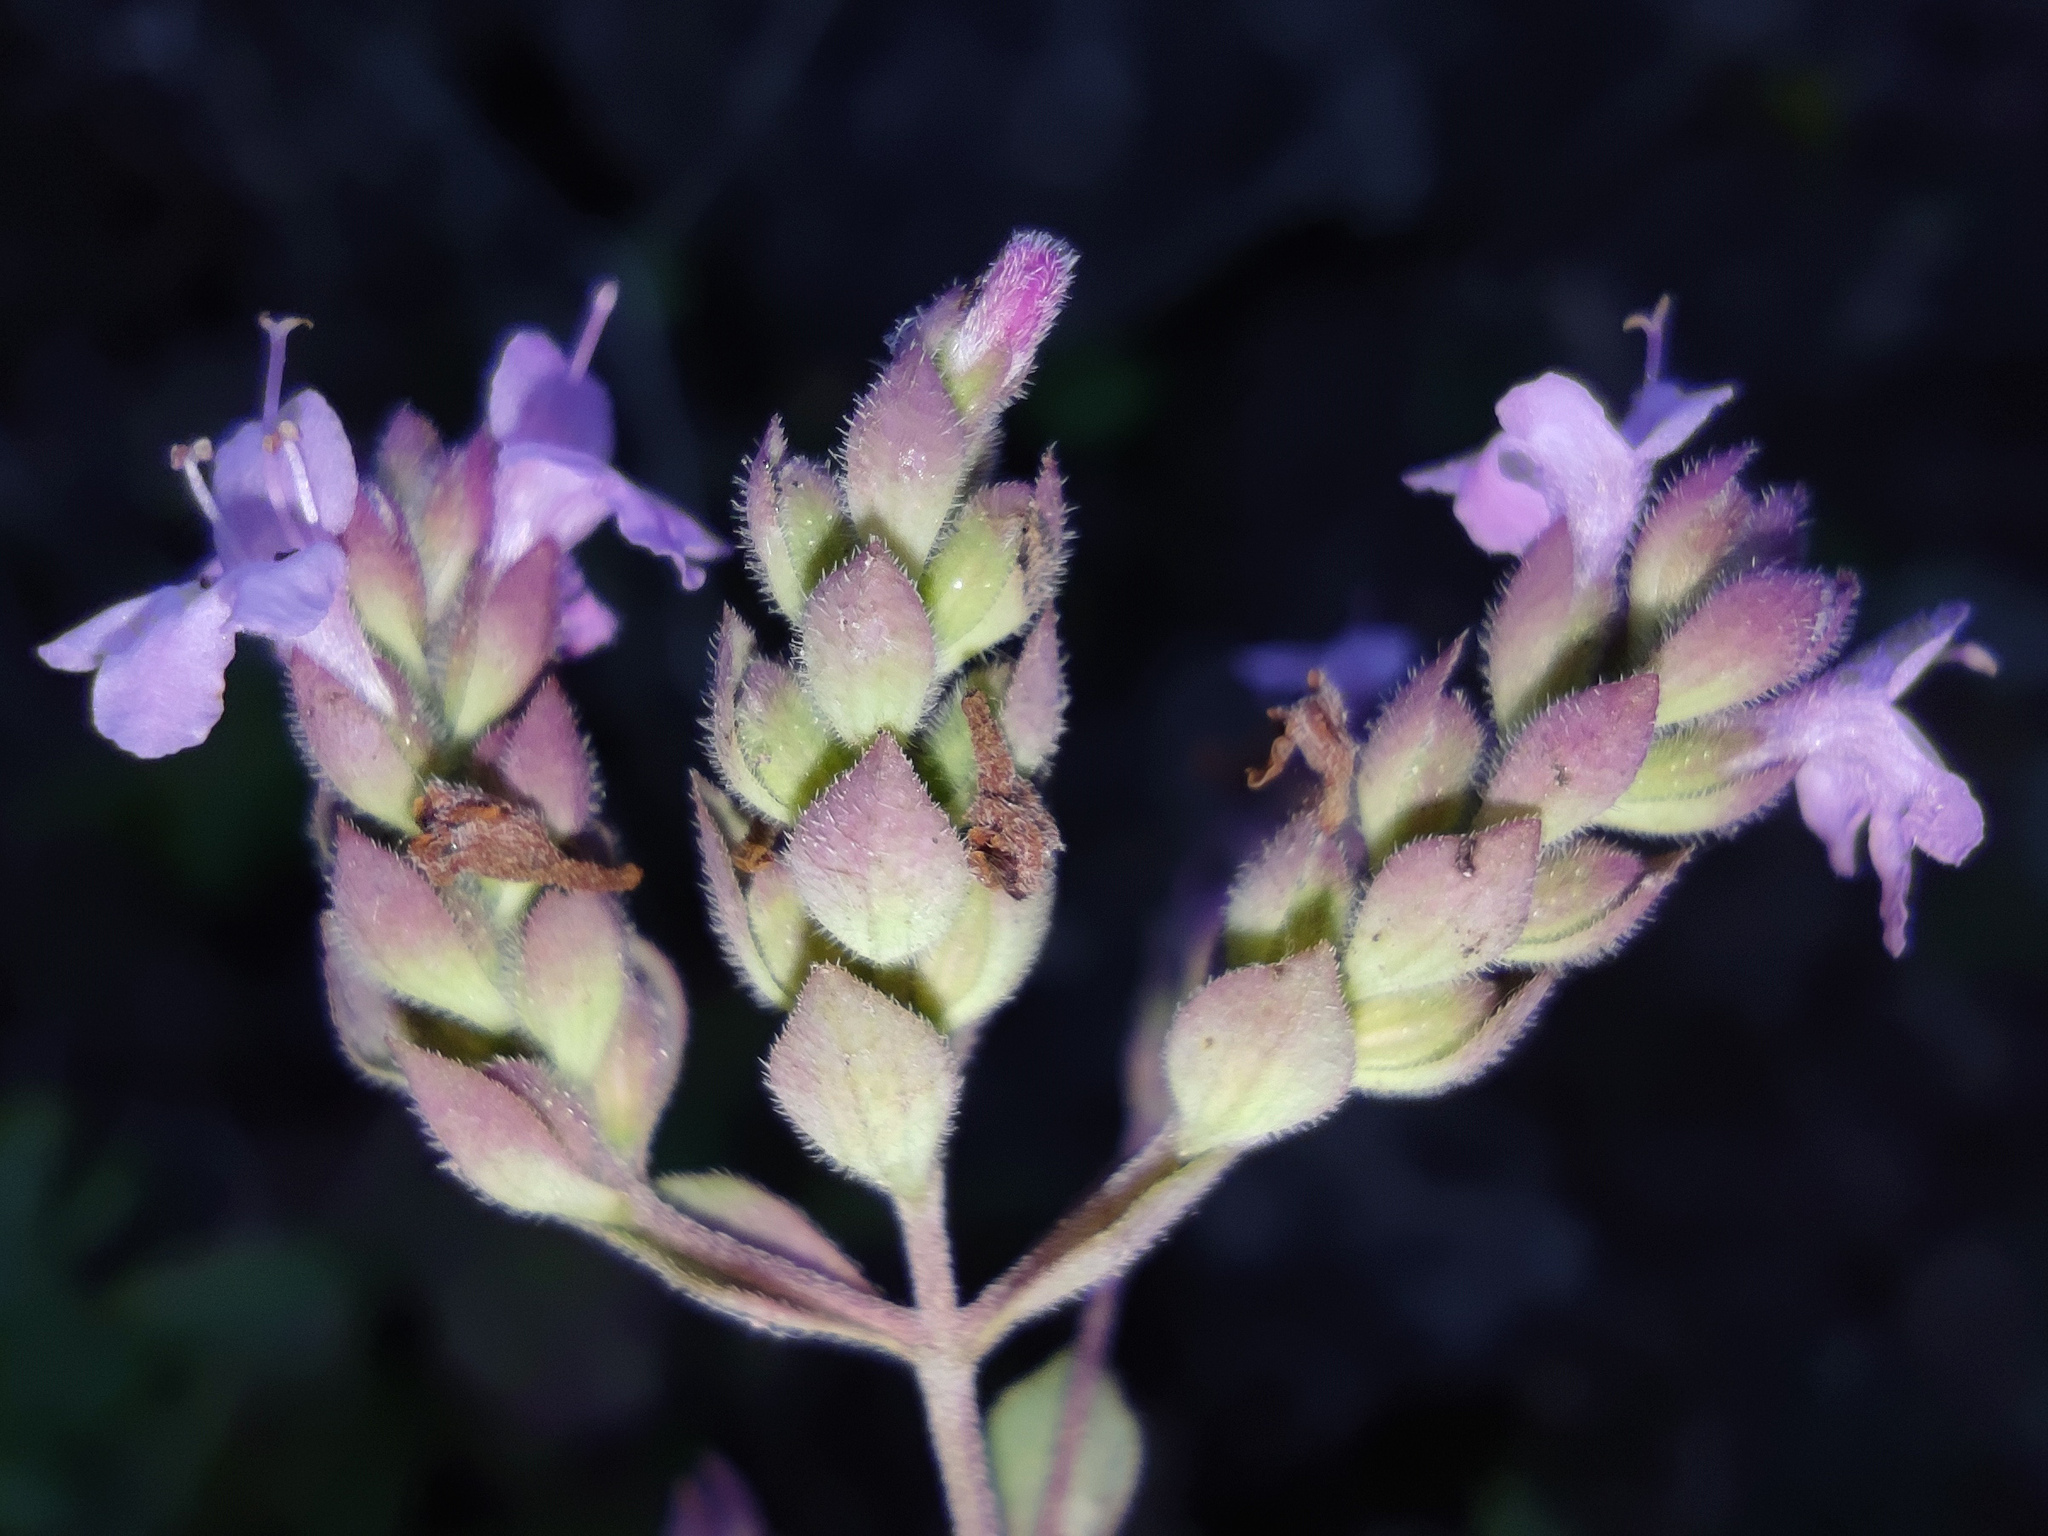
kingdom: Plantae
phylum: Tracheophyta
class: Magnoliopsida
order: Lamiales
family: Lamiaceae
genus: Origanum
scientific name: Origanum vulgare
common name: Wild marjoram
